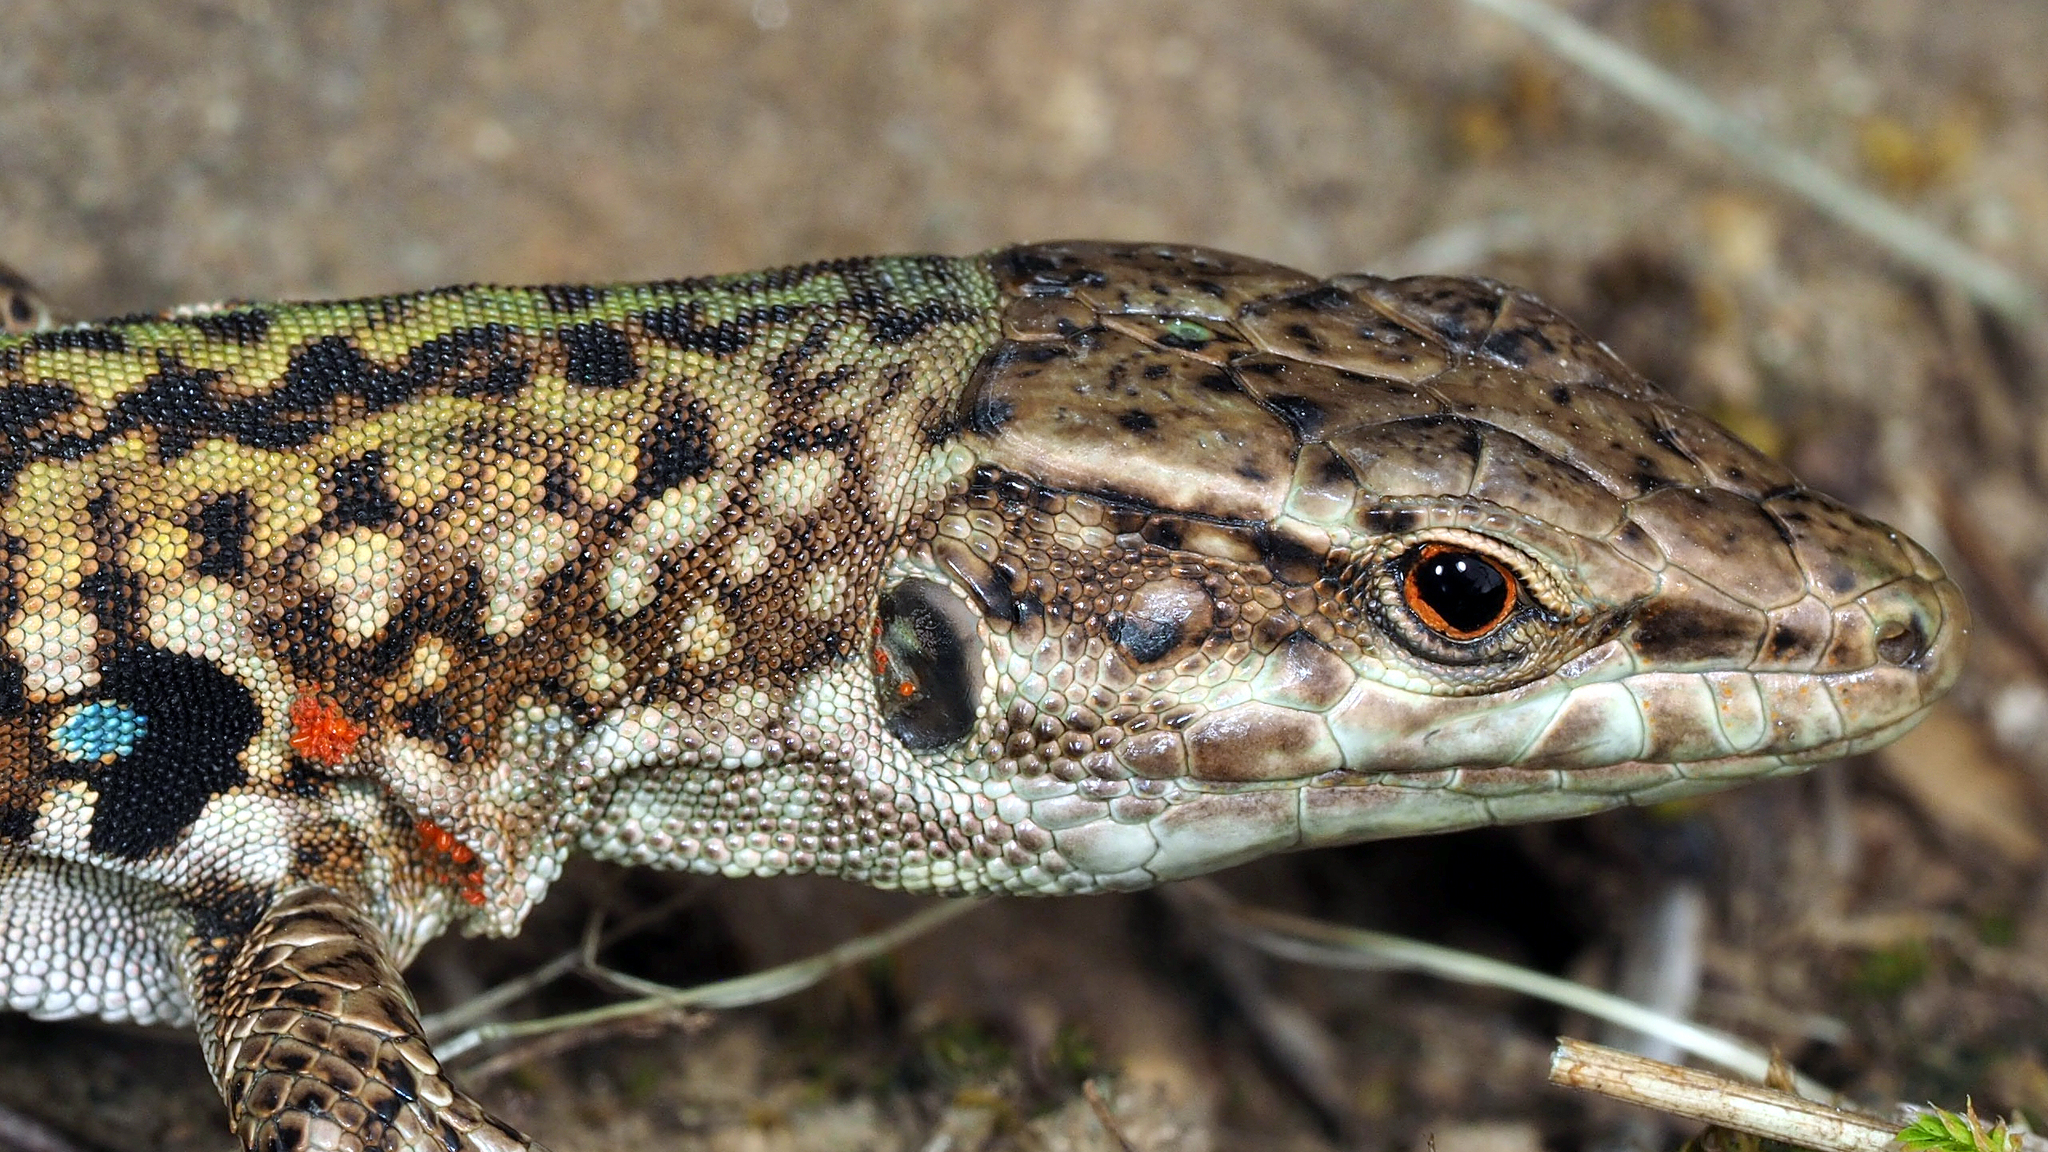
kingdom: Animalia
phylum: Chordata
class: Squamata
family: Lacertidae
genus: Podarcis
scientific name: Podarcis siculus
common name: Italian wall lizard
